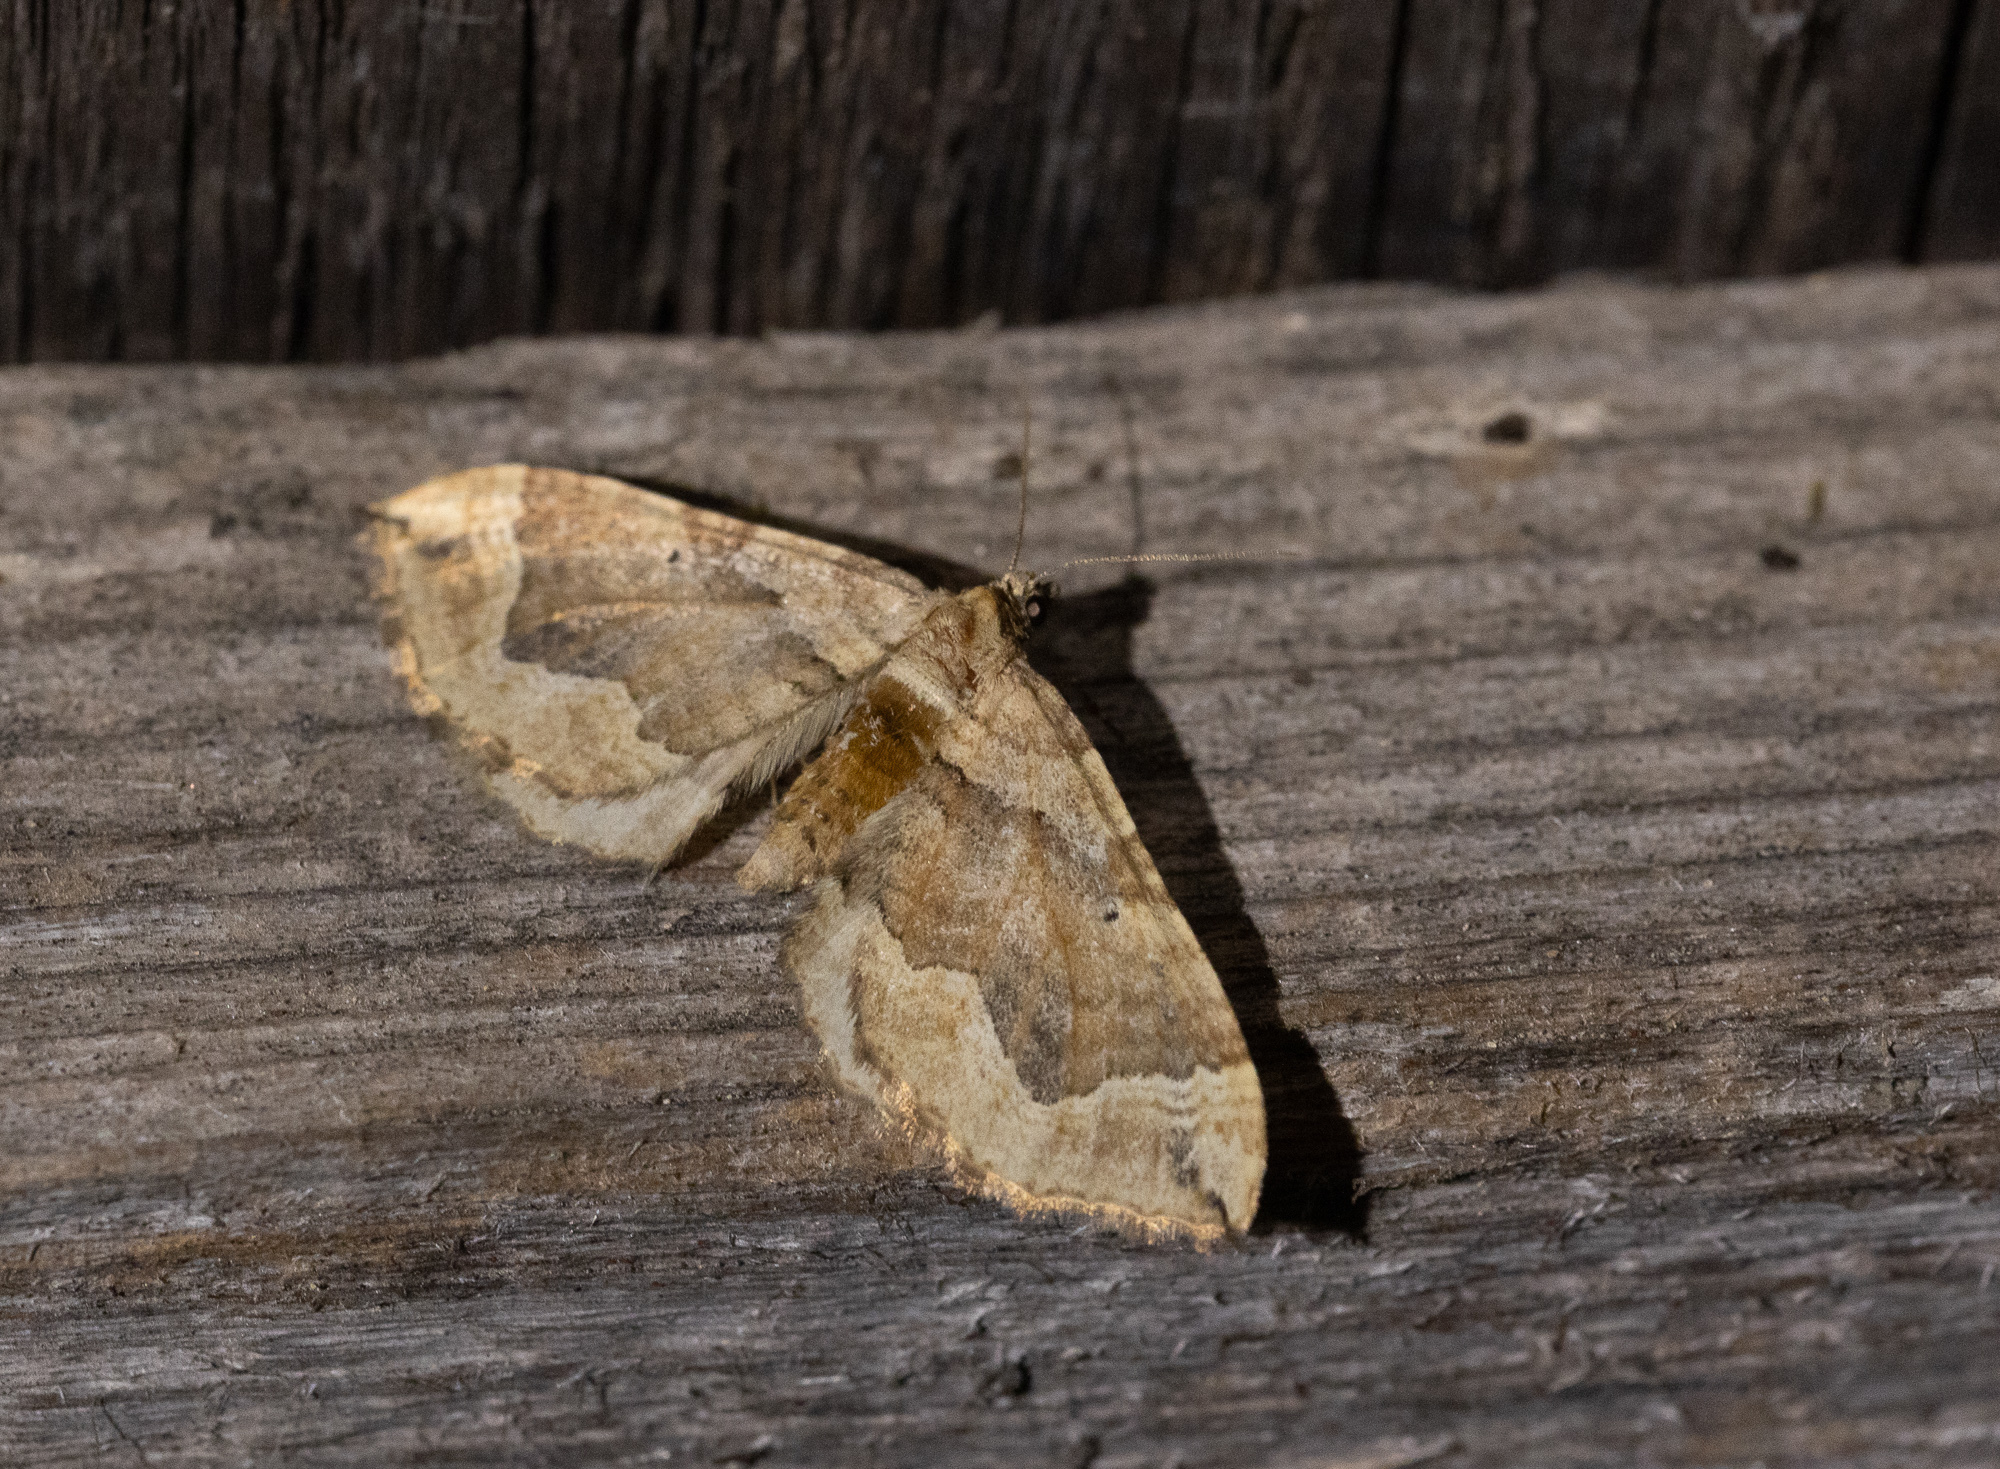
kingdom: Animalia
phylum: Arthropoda
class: Insecta
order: Lepidoptera
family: Geometridae
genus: Pelurga
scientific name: Pelurga comitata
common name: Dark spinach
